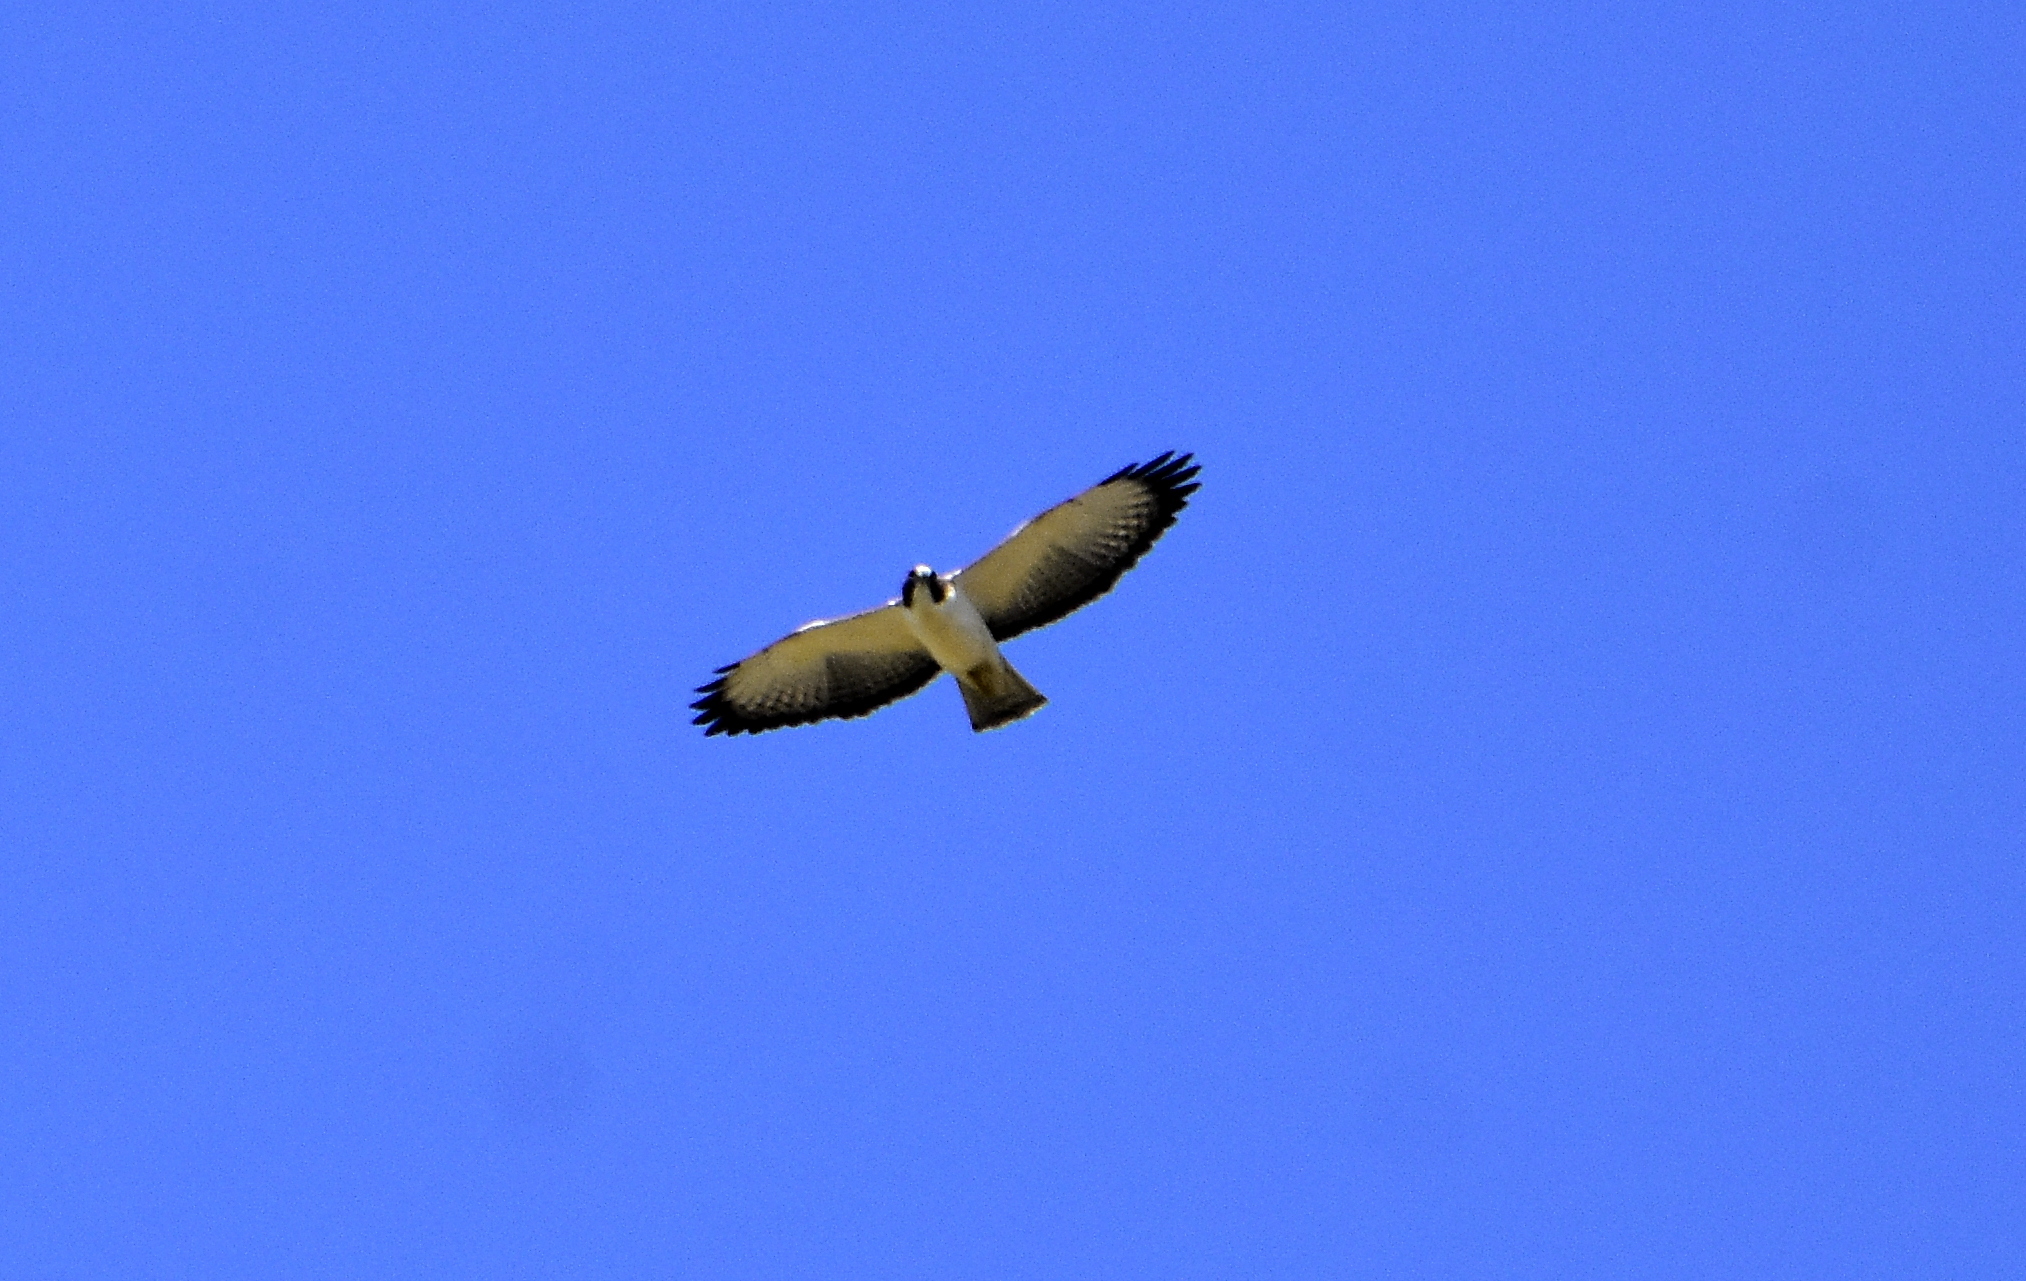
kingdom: Animalia
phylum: Chordata
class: Aves
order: Accipitriformes
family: Accipitridae
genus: Buteo
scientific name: Buteo brachyurus
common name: Short-tailed hawk
